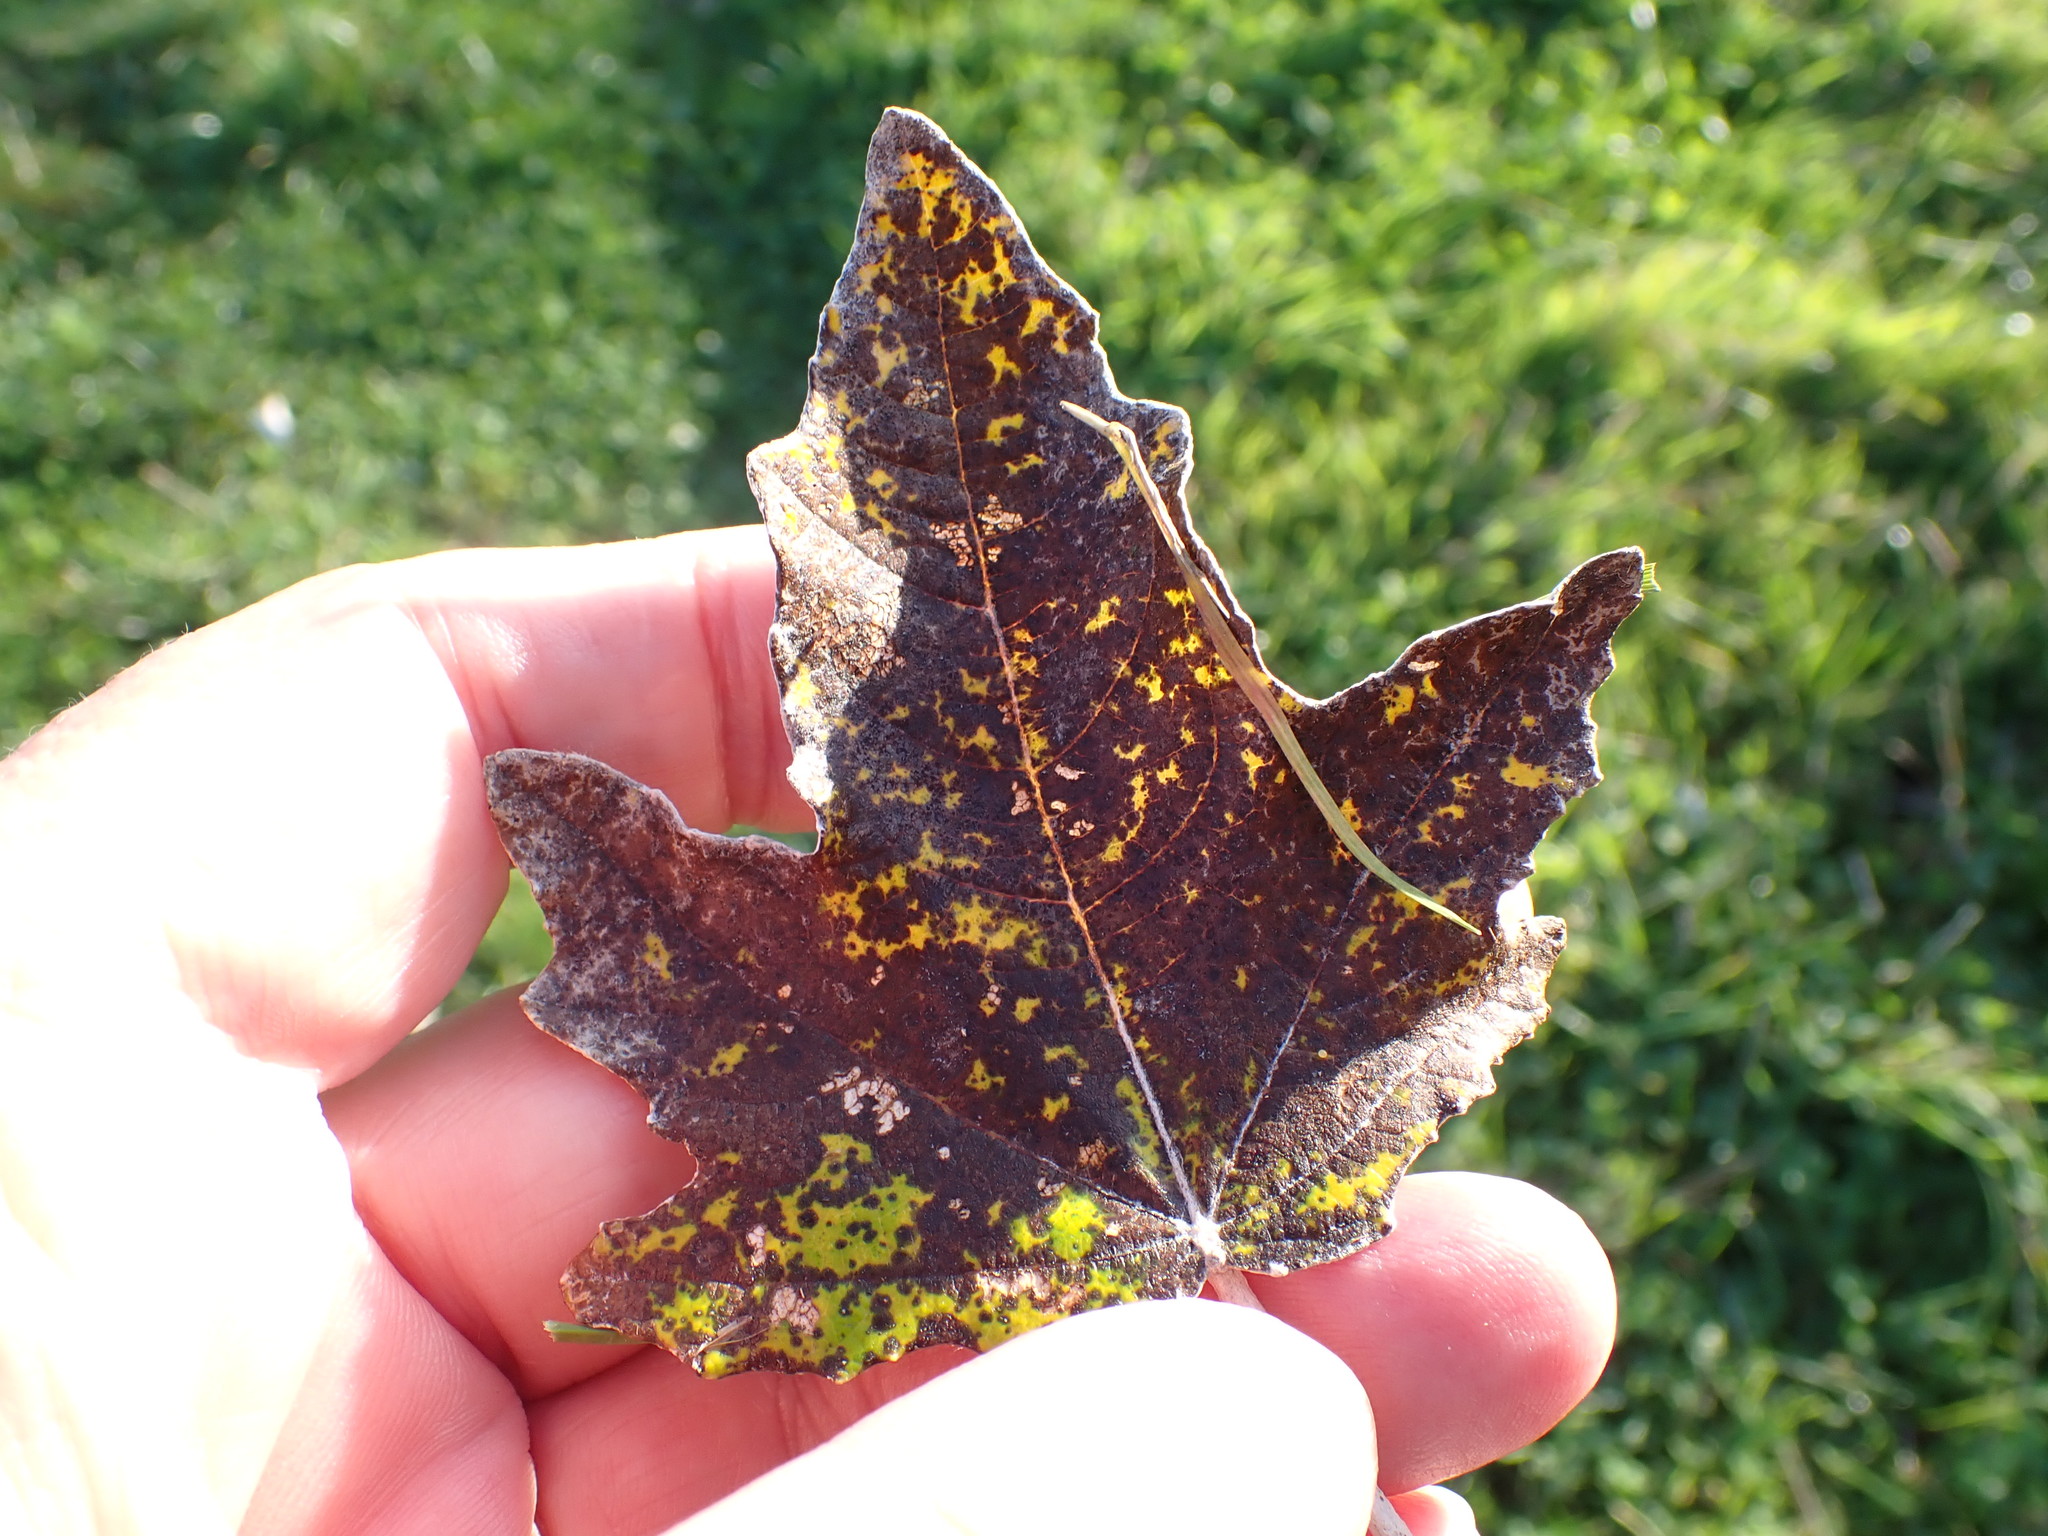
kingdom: Plantae
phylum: Tracheophyta
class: Magnoliopsida
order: Malpighiales
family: Salicaceae
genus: Populus
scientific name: Populus alba
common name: White poplar
